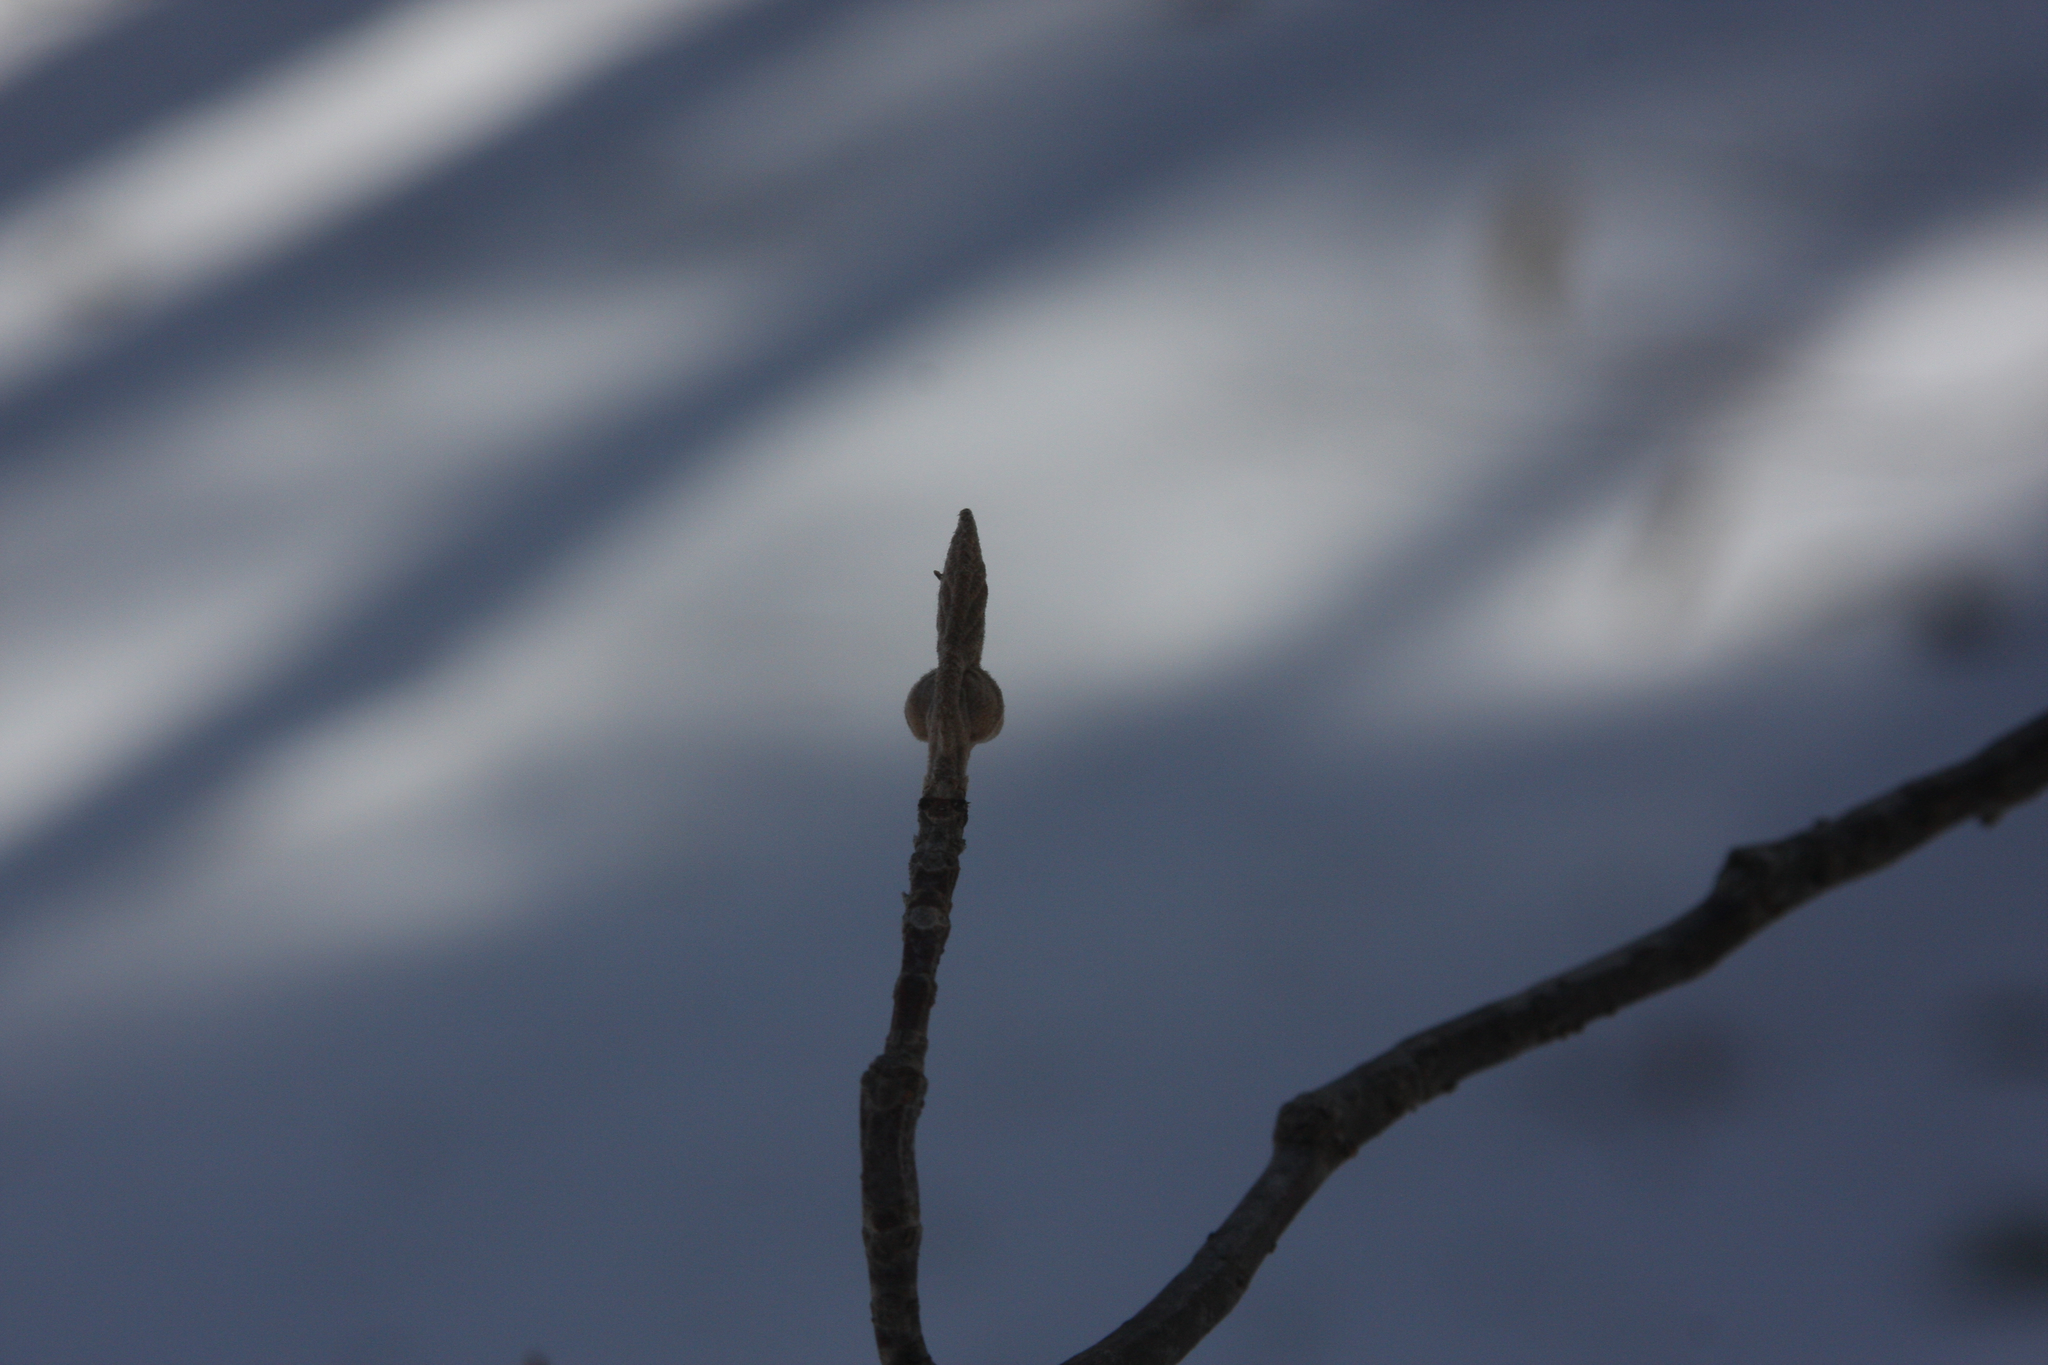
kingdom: Plantae
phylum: Tracheophyta
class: Magnoliopsida
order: Dipsacales
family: Viburnaceae
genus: Viburnum
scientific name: Viburnum lantanoides
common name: Hobblebush
